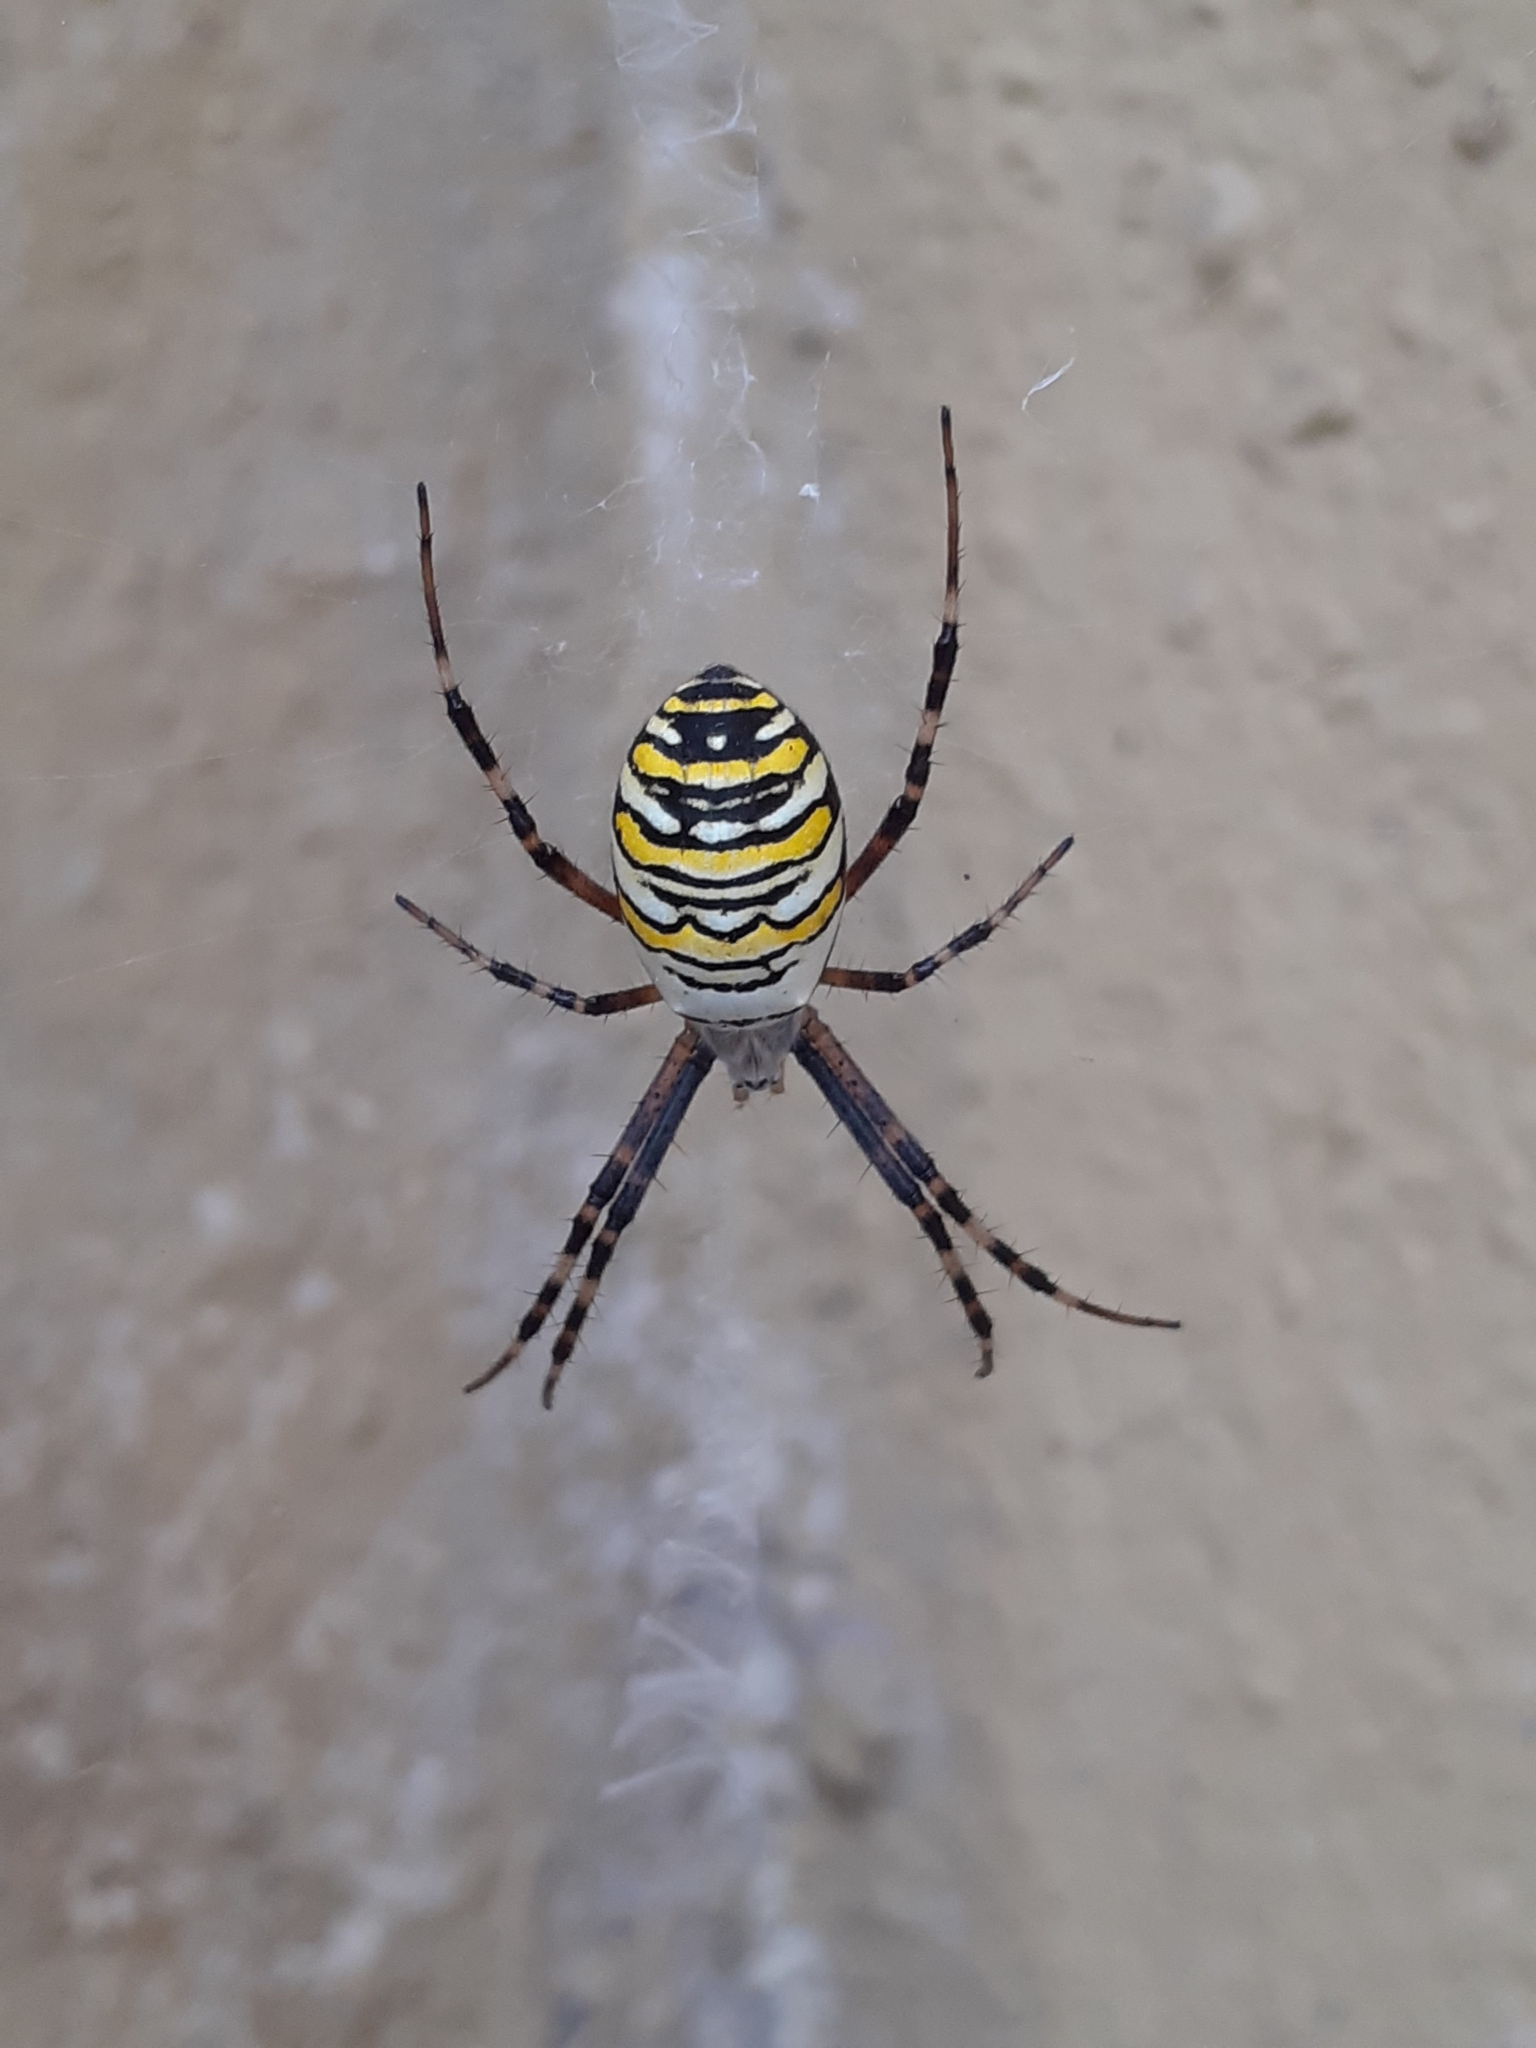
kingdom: Animalia
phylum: Arthropoda
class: Arachnida
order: Araneae
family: Araneidae
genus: Argiope
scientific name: Argiope bruennichi
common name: Wasp spider
